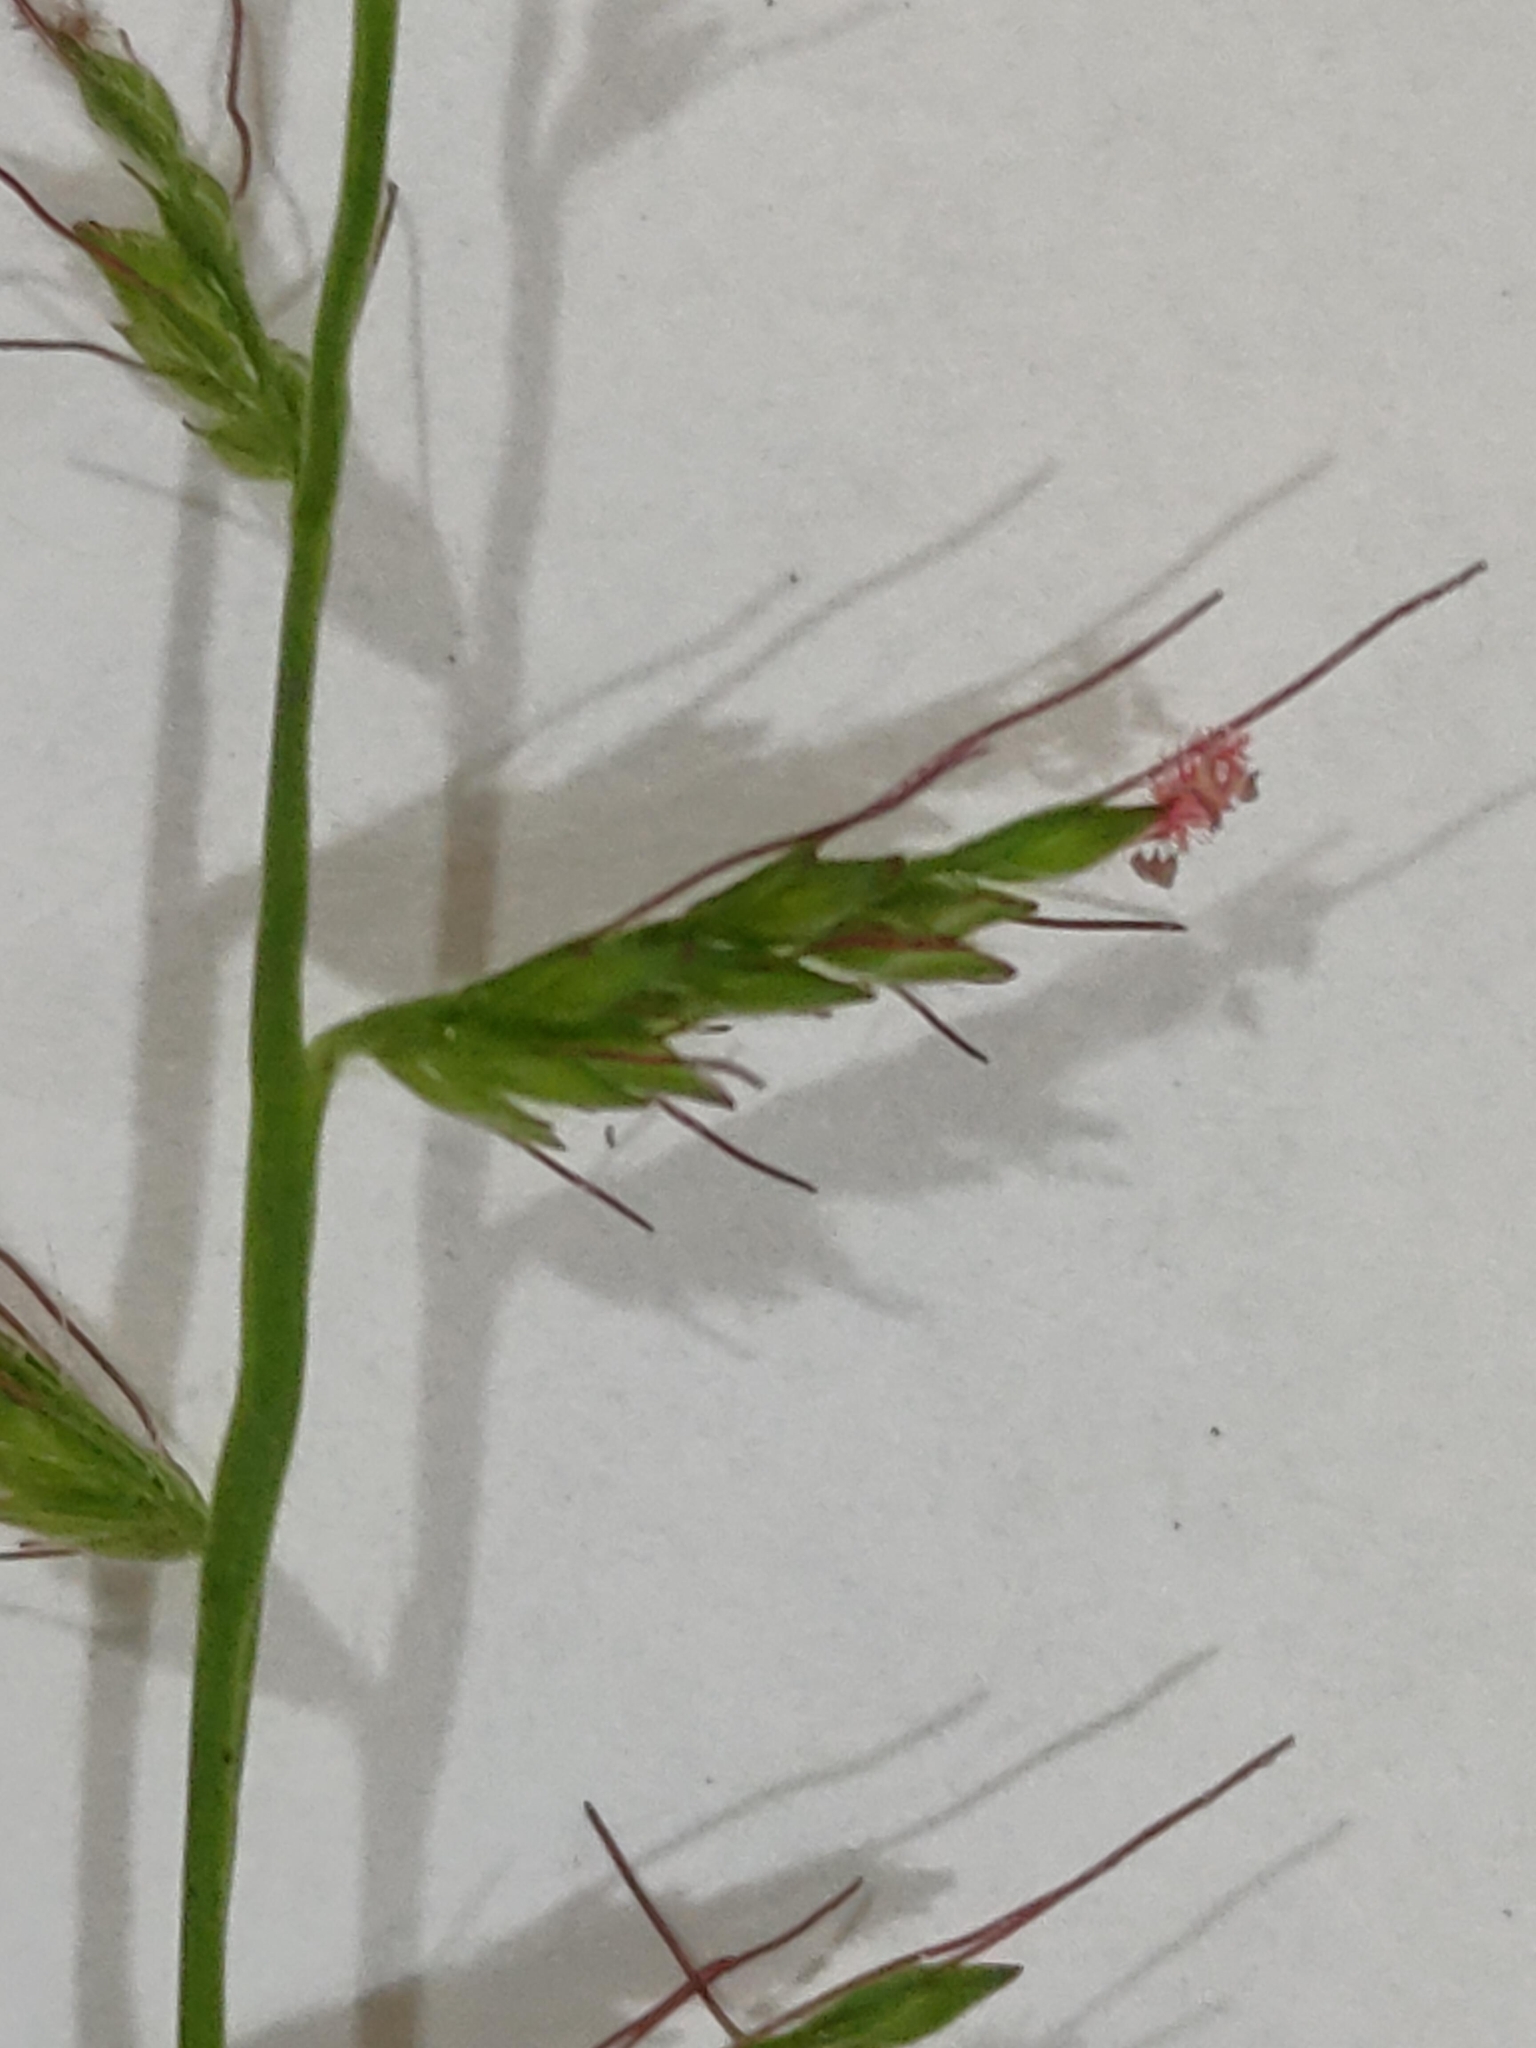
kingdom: Plantae
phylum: Tracheophyta
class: Liliopsida
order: Poales
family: Poaceae
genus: Oplismenus
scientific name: Oplismenus hirtellus
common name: Basketgrass
